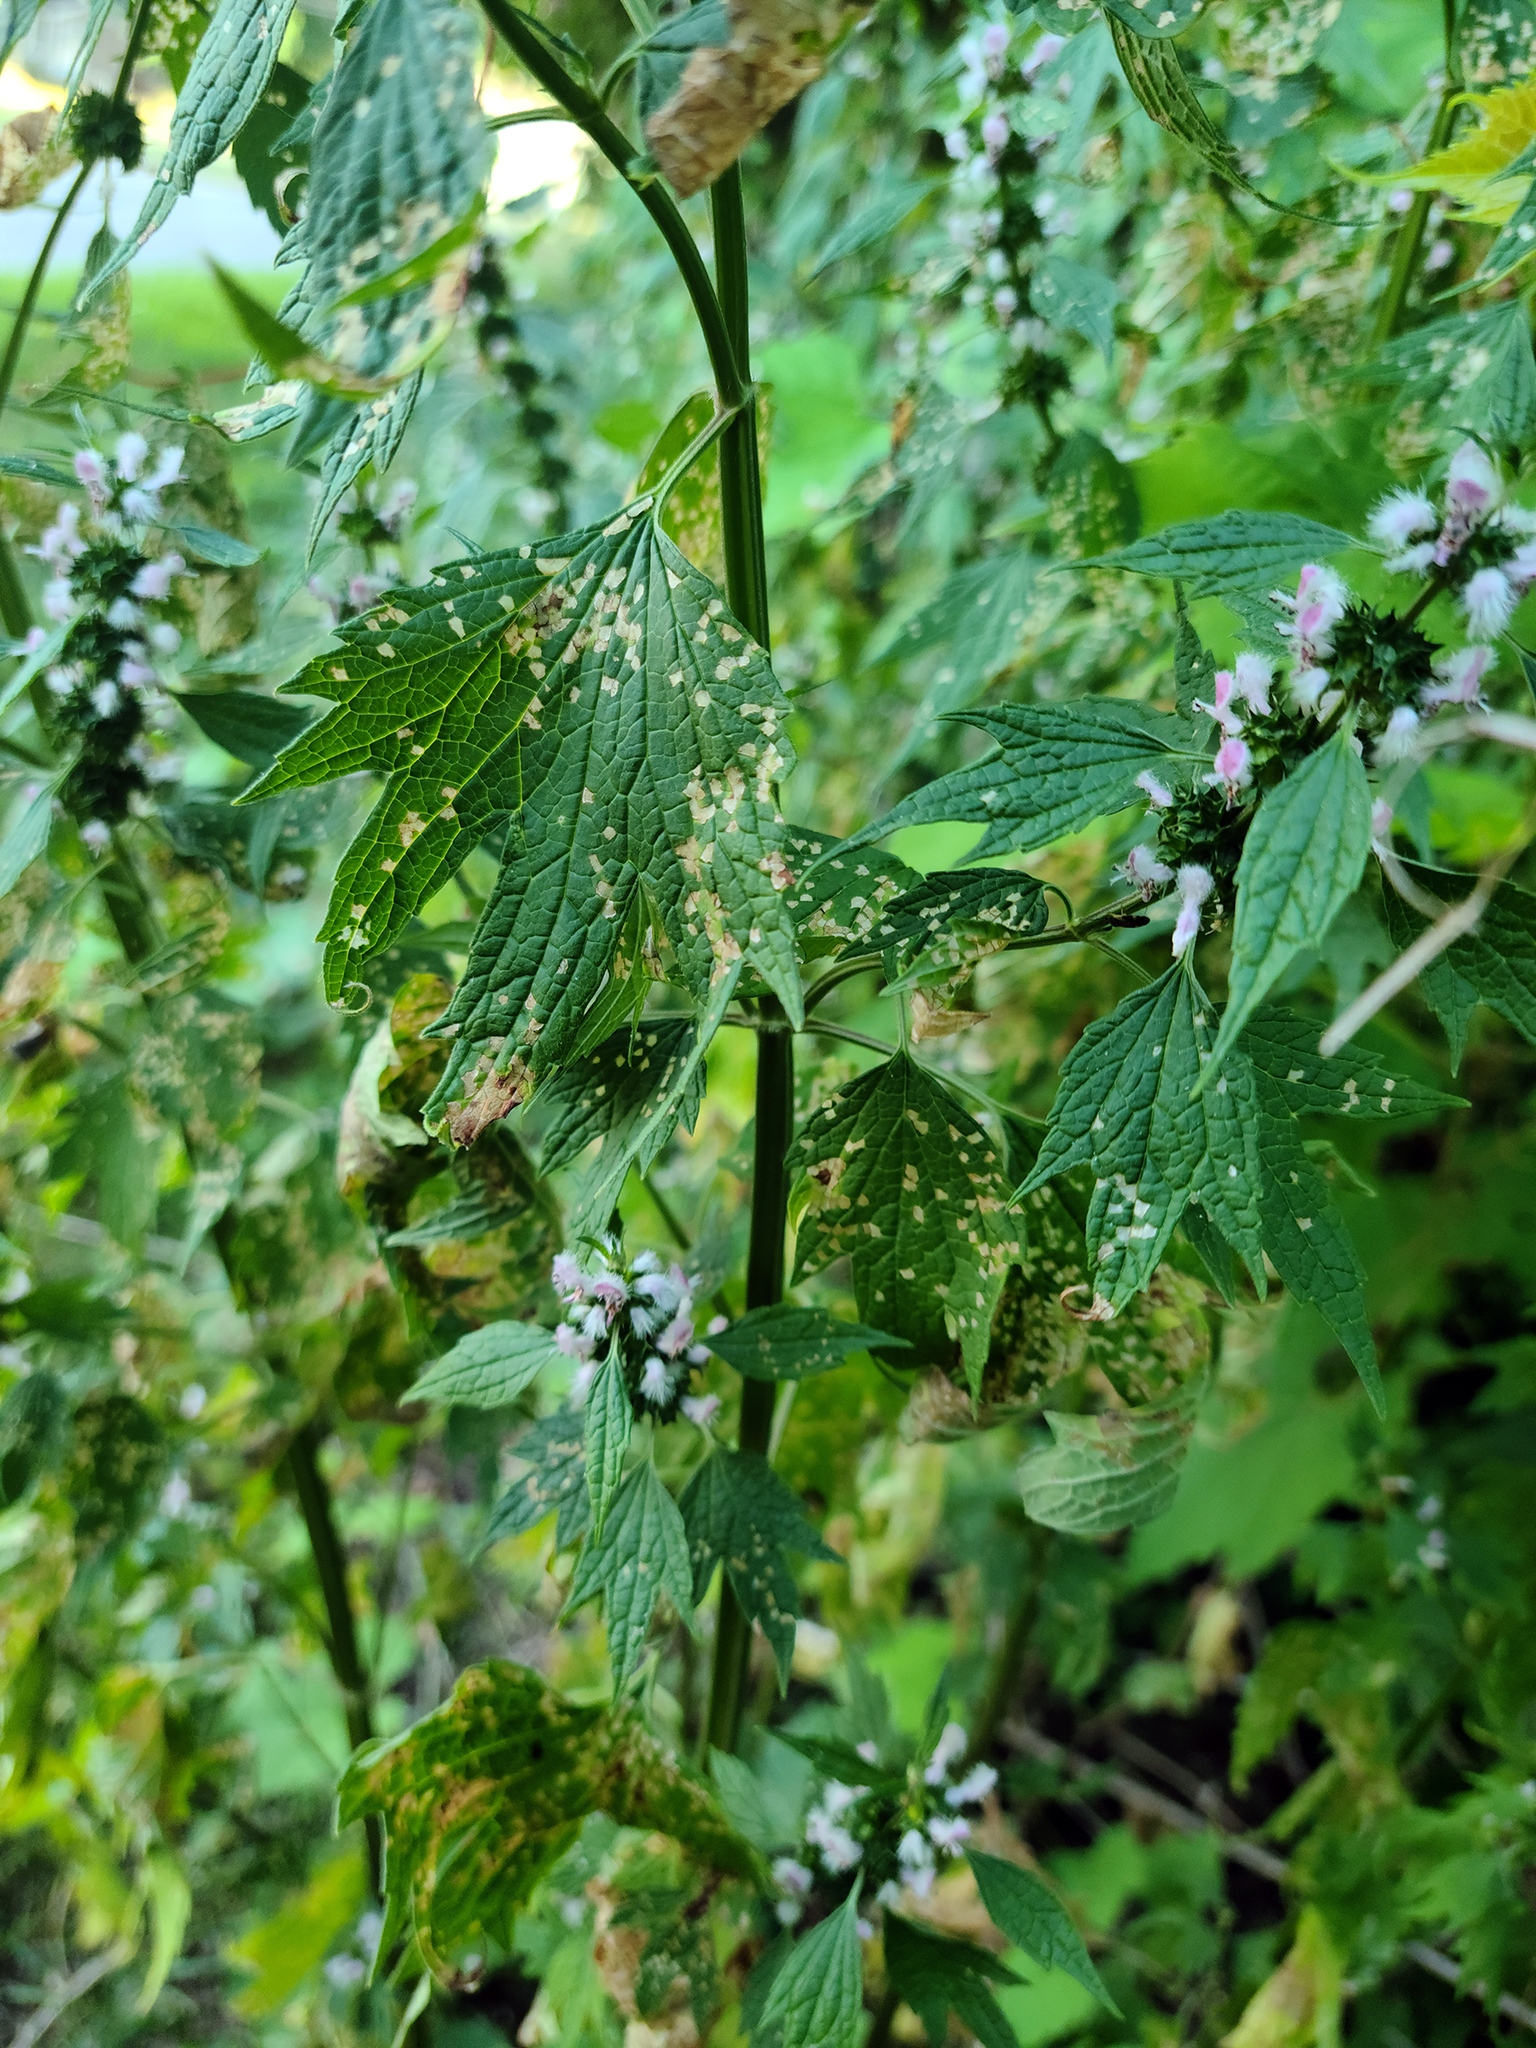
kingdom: Plantae
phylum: Tracheophyta
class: Magnoliopsida
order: Lamiales
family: Lamiaceae
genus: Leonurus
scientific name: Leonurus cardiaca
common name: Motherwort
